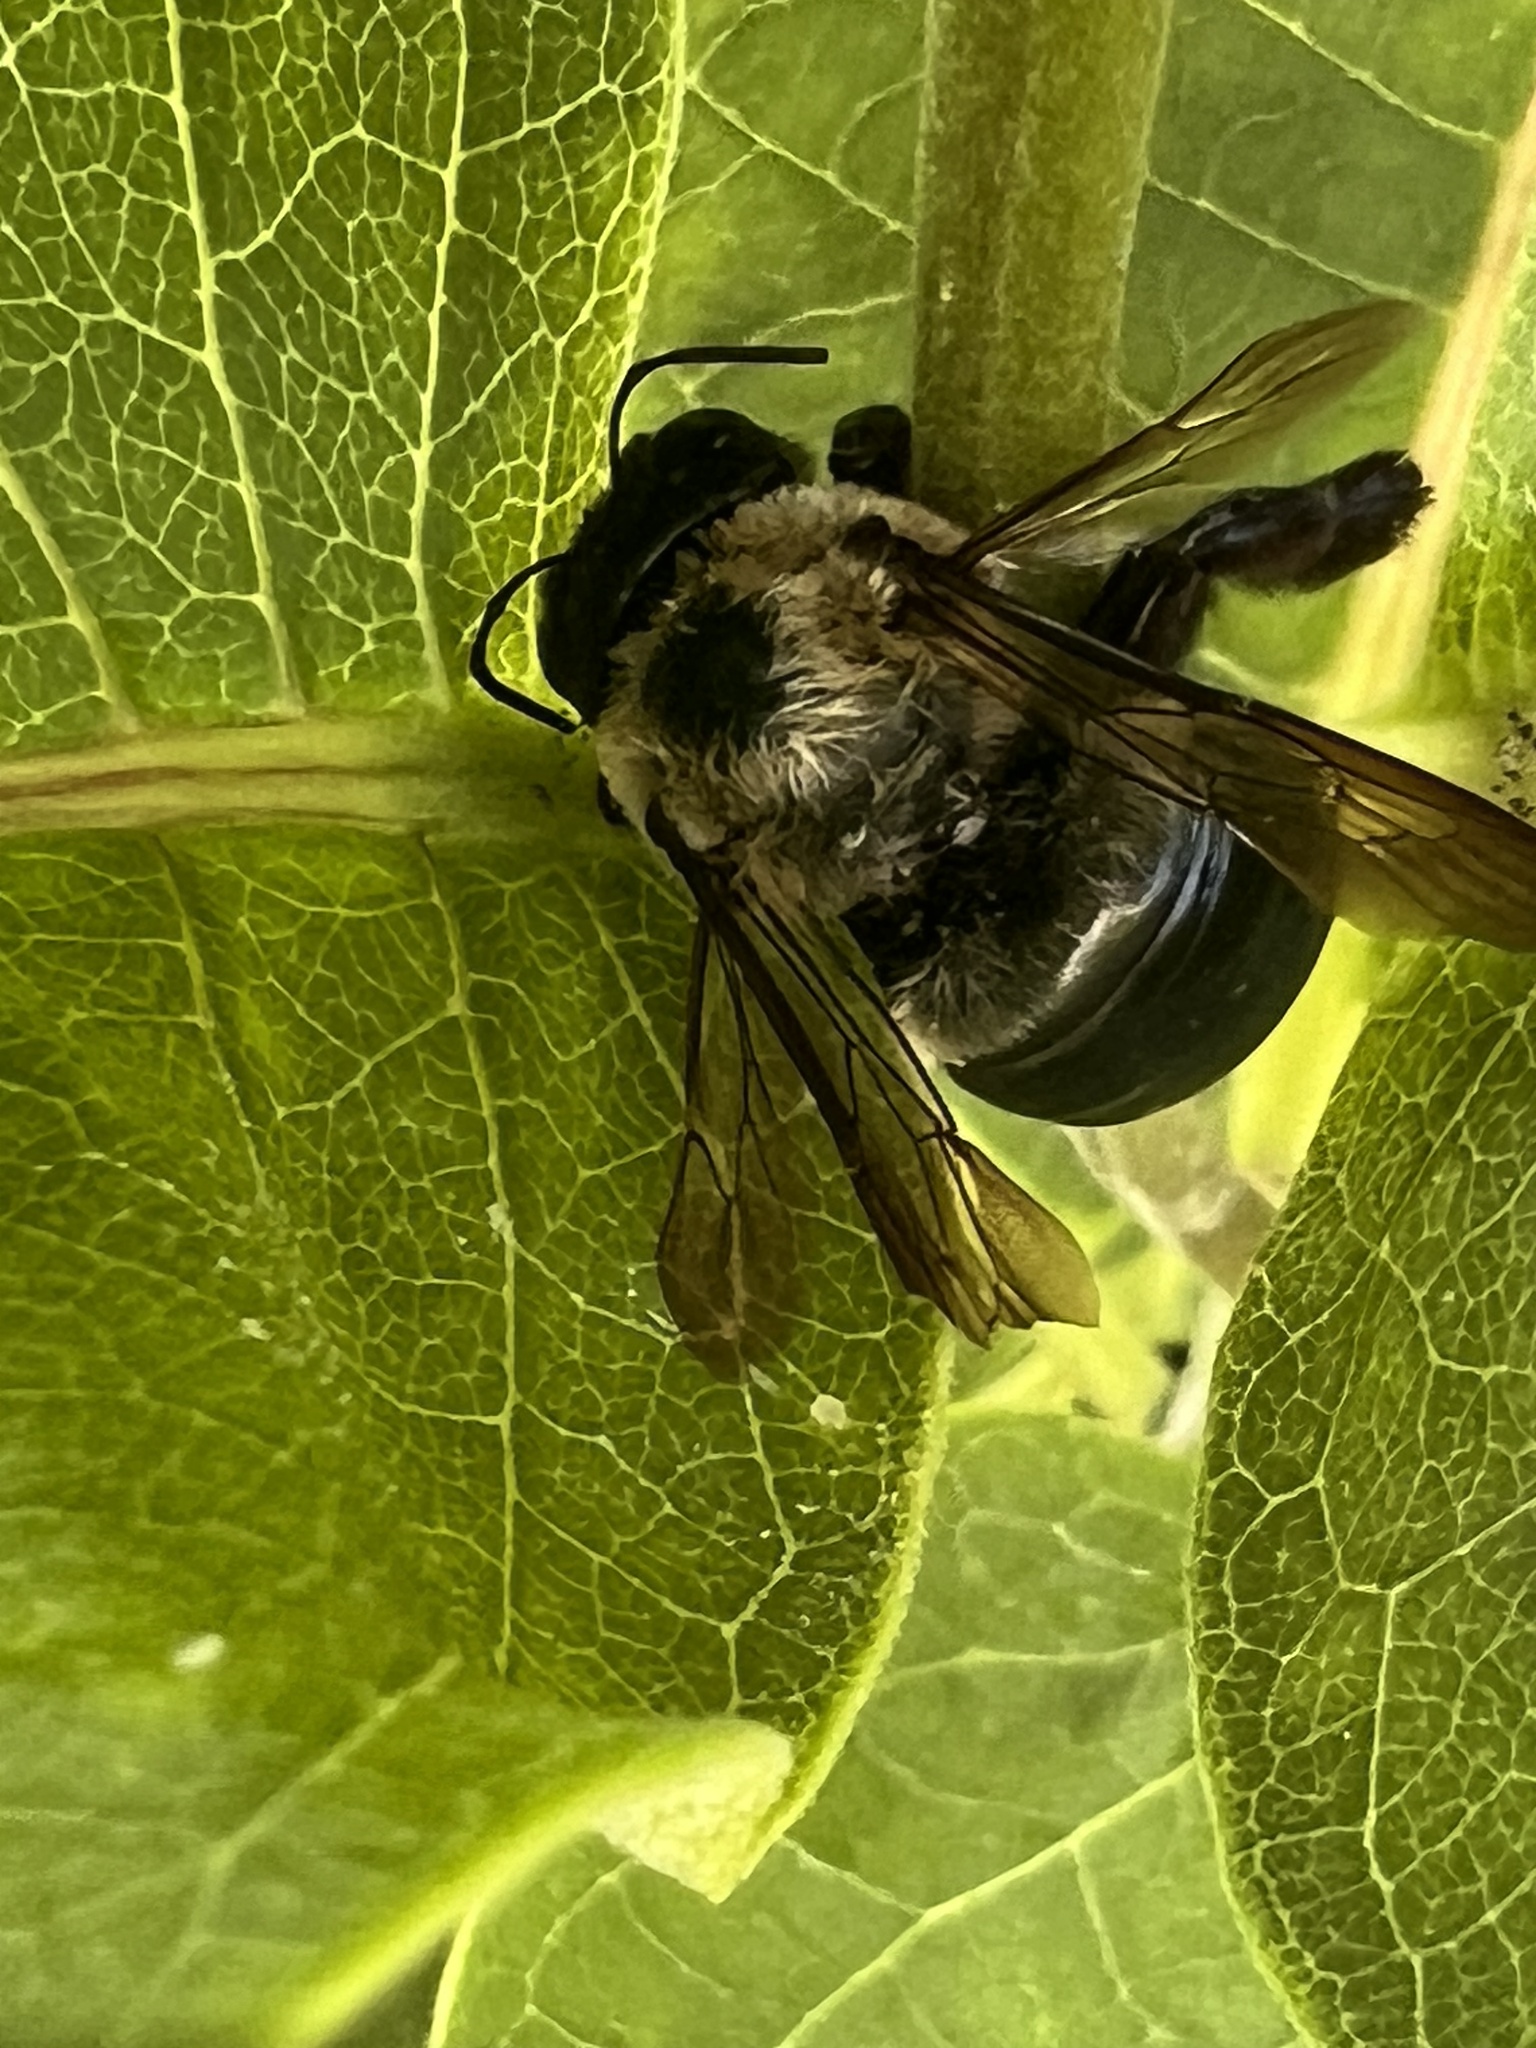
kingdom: Animalia
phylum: Arthropoda
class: Insecta
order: Hymenoptera
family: Apidae
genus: Xylocopa
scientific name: Xylocopa virginica
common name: Carpenter bee
